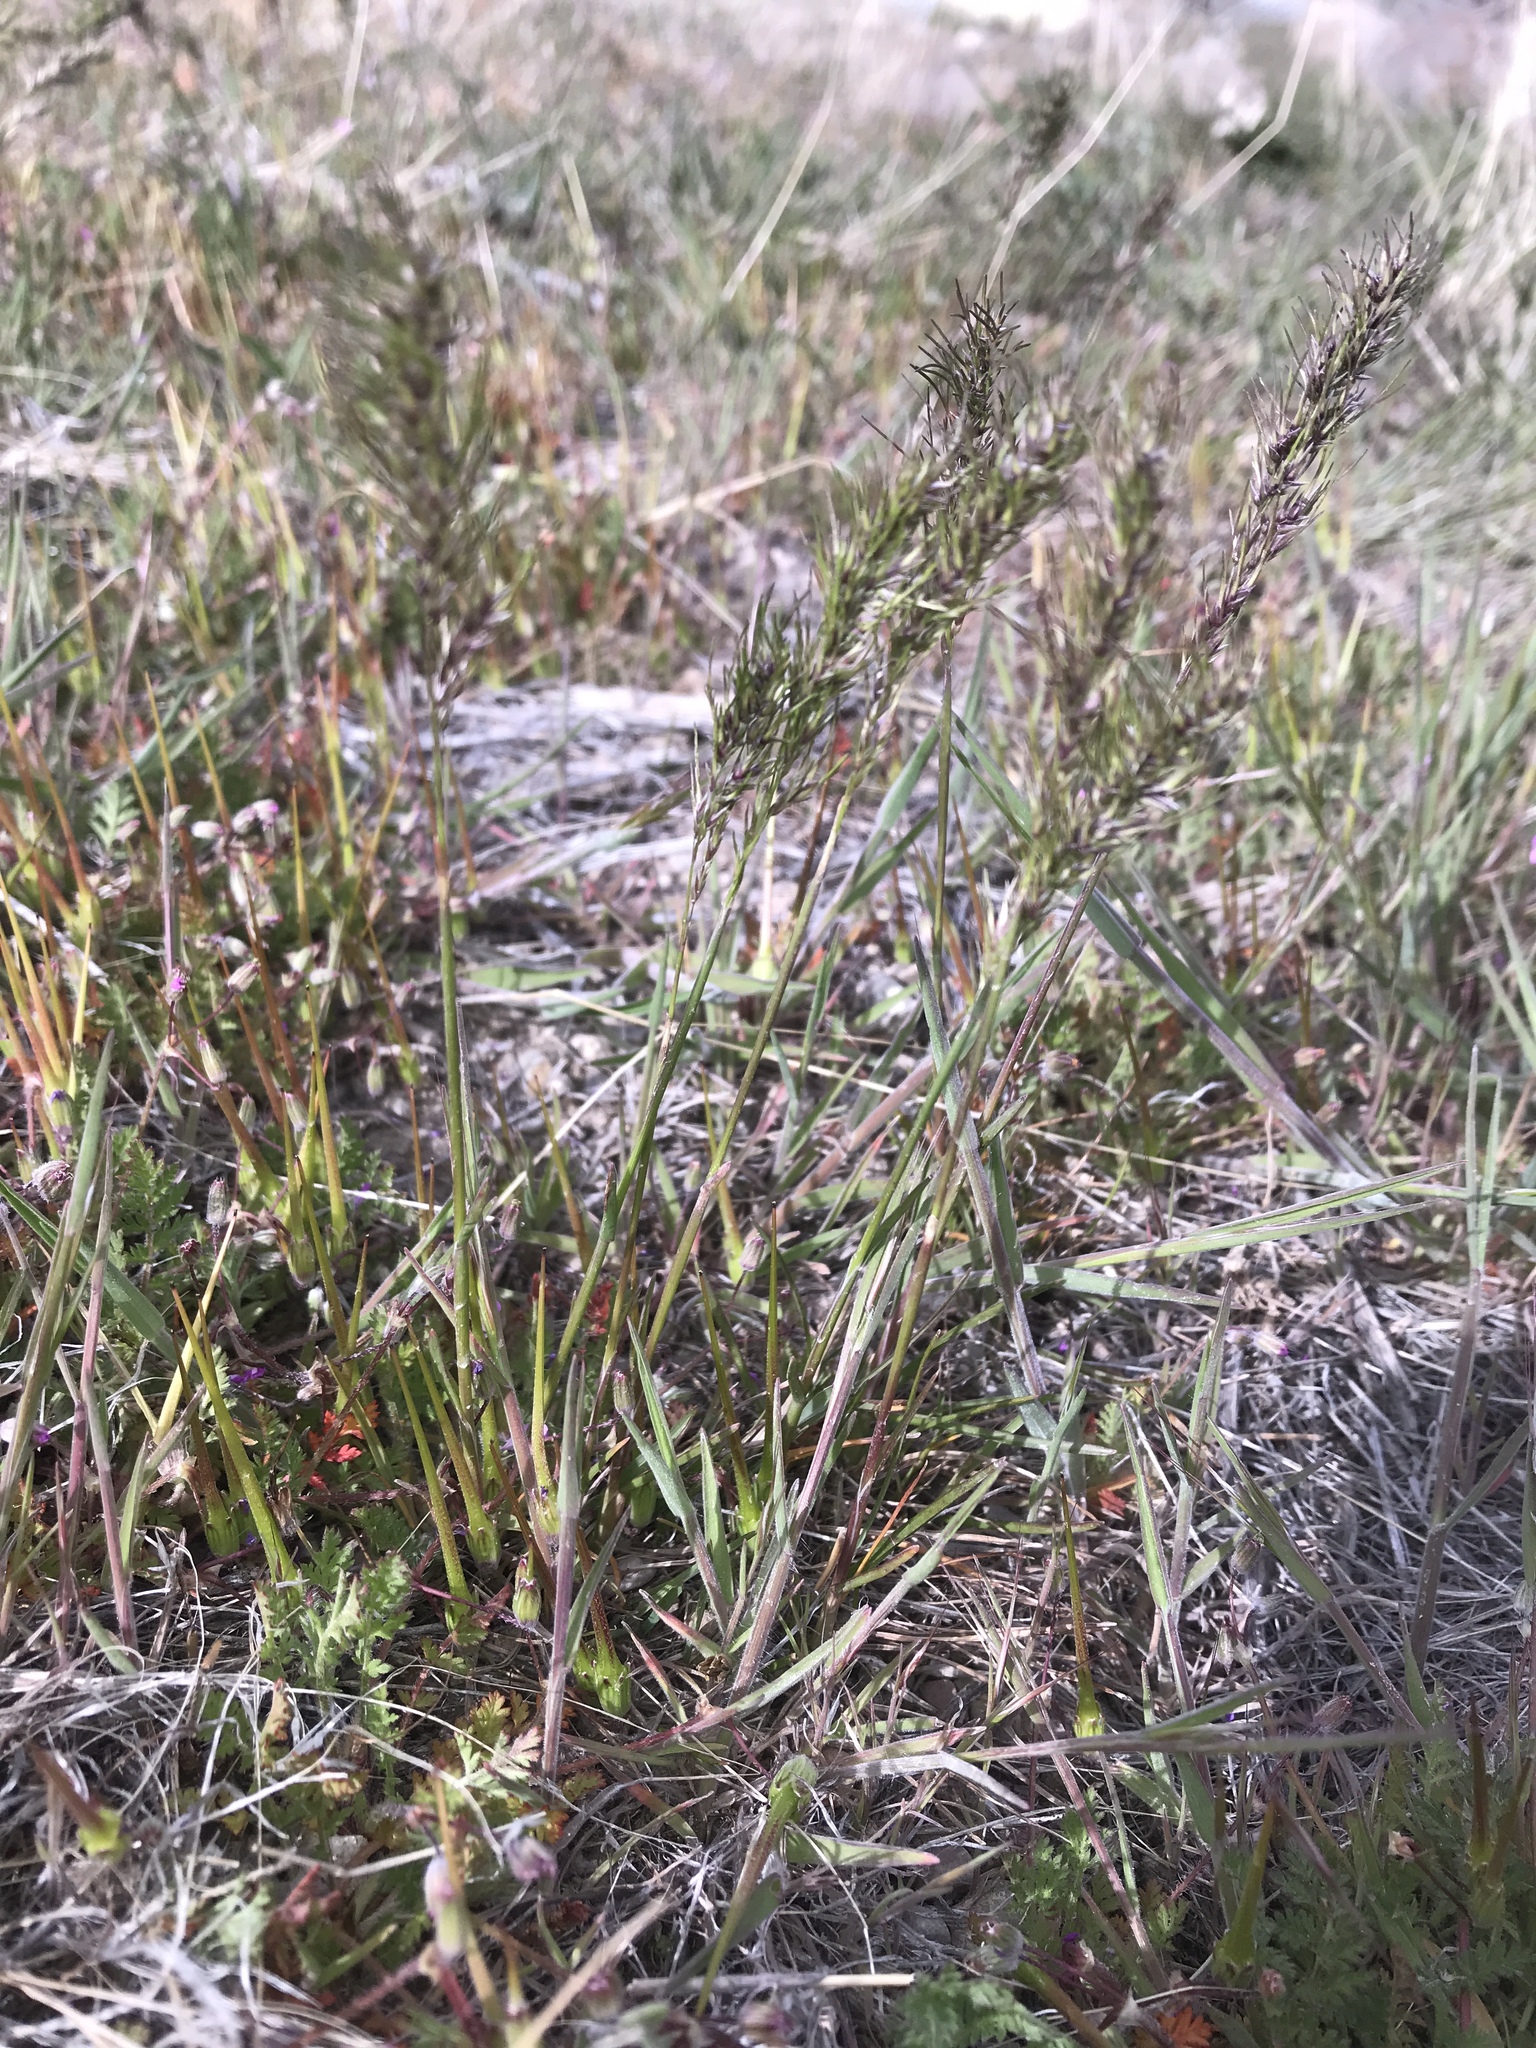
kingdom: Plantae
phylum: Tracheophyta
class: Liliopsida
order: Poales
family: Poaceae
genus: Poa
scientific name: Poa bulbosa
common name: Bulbous bluegrass
